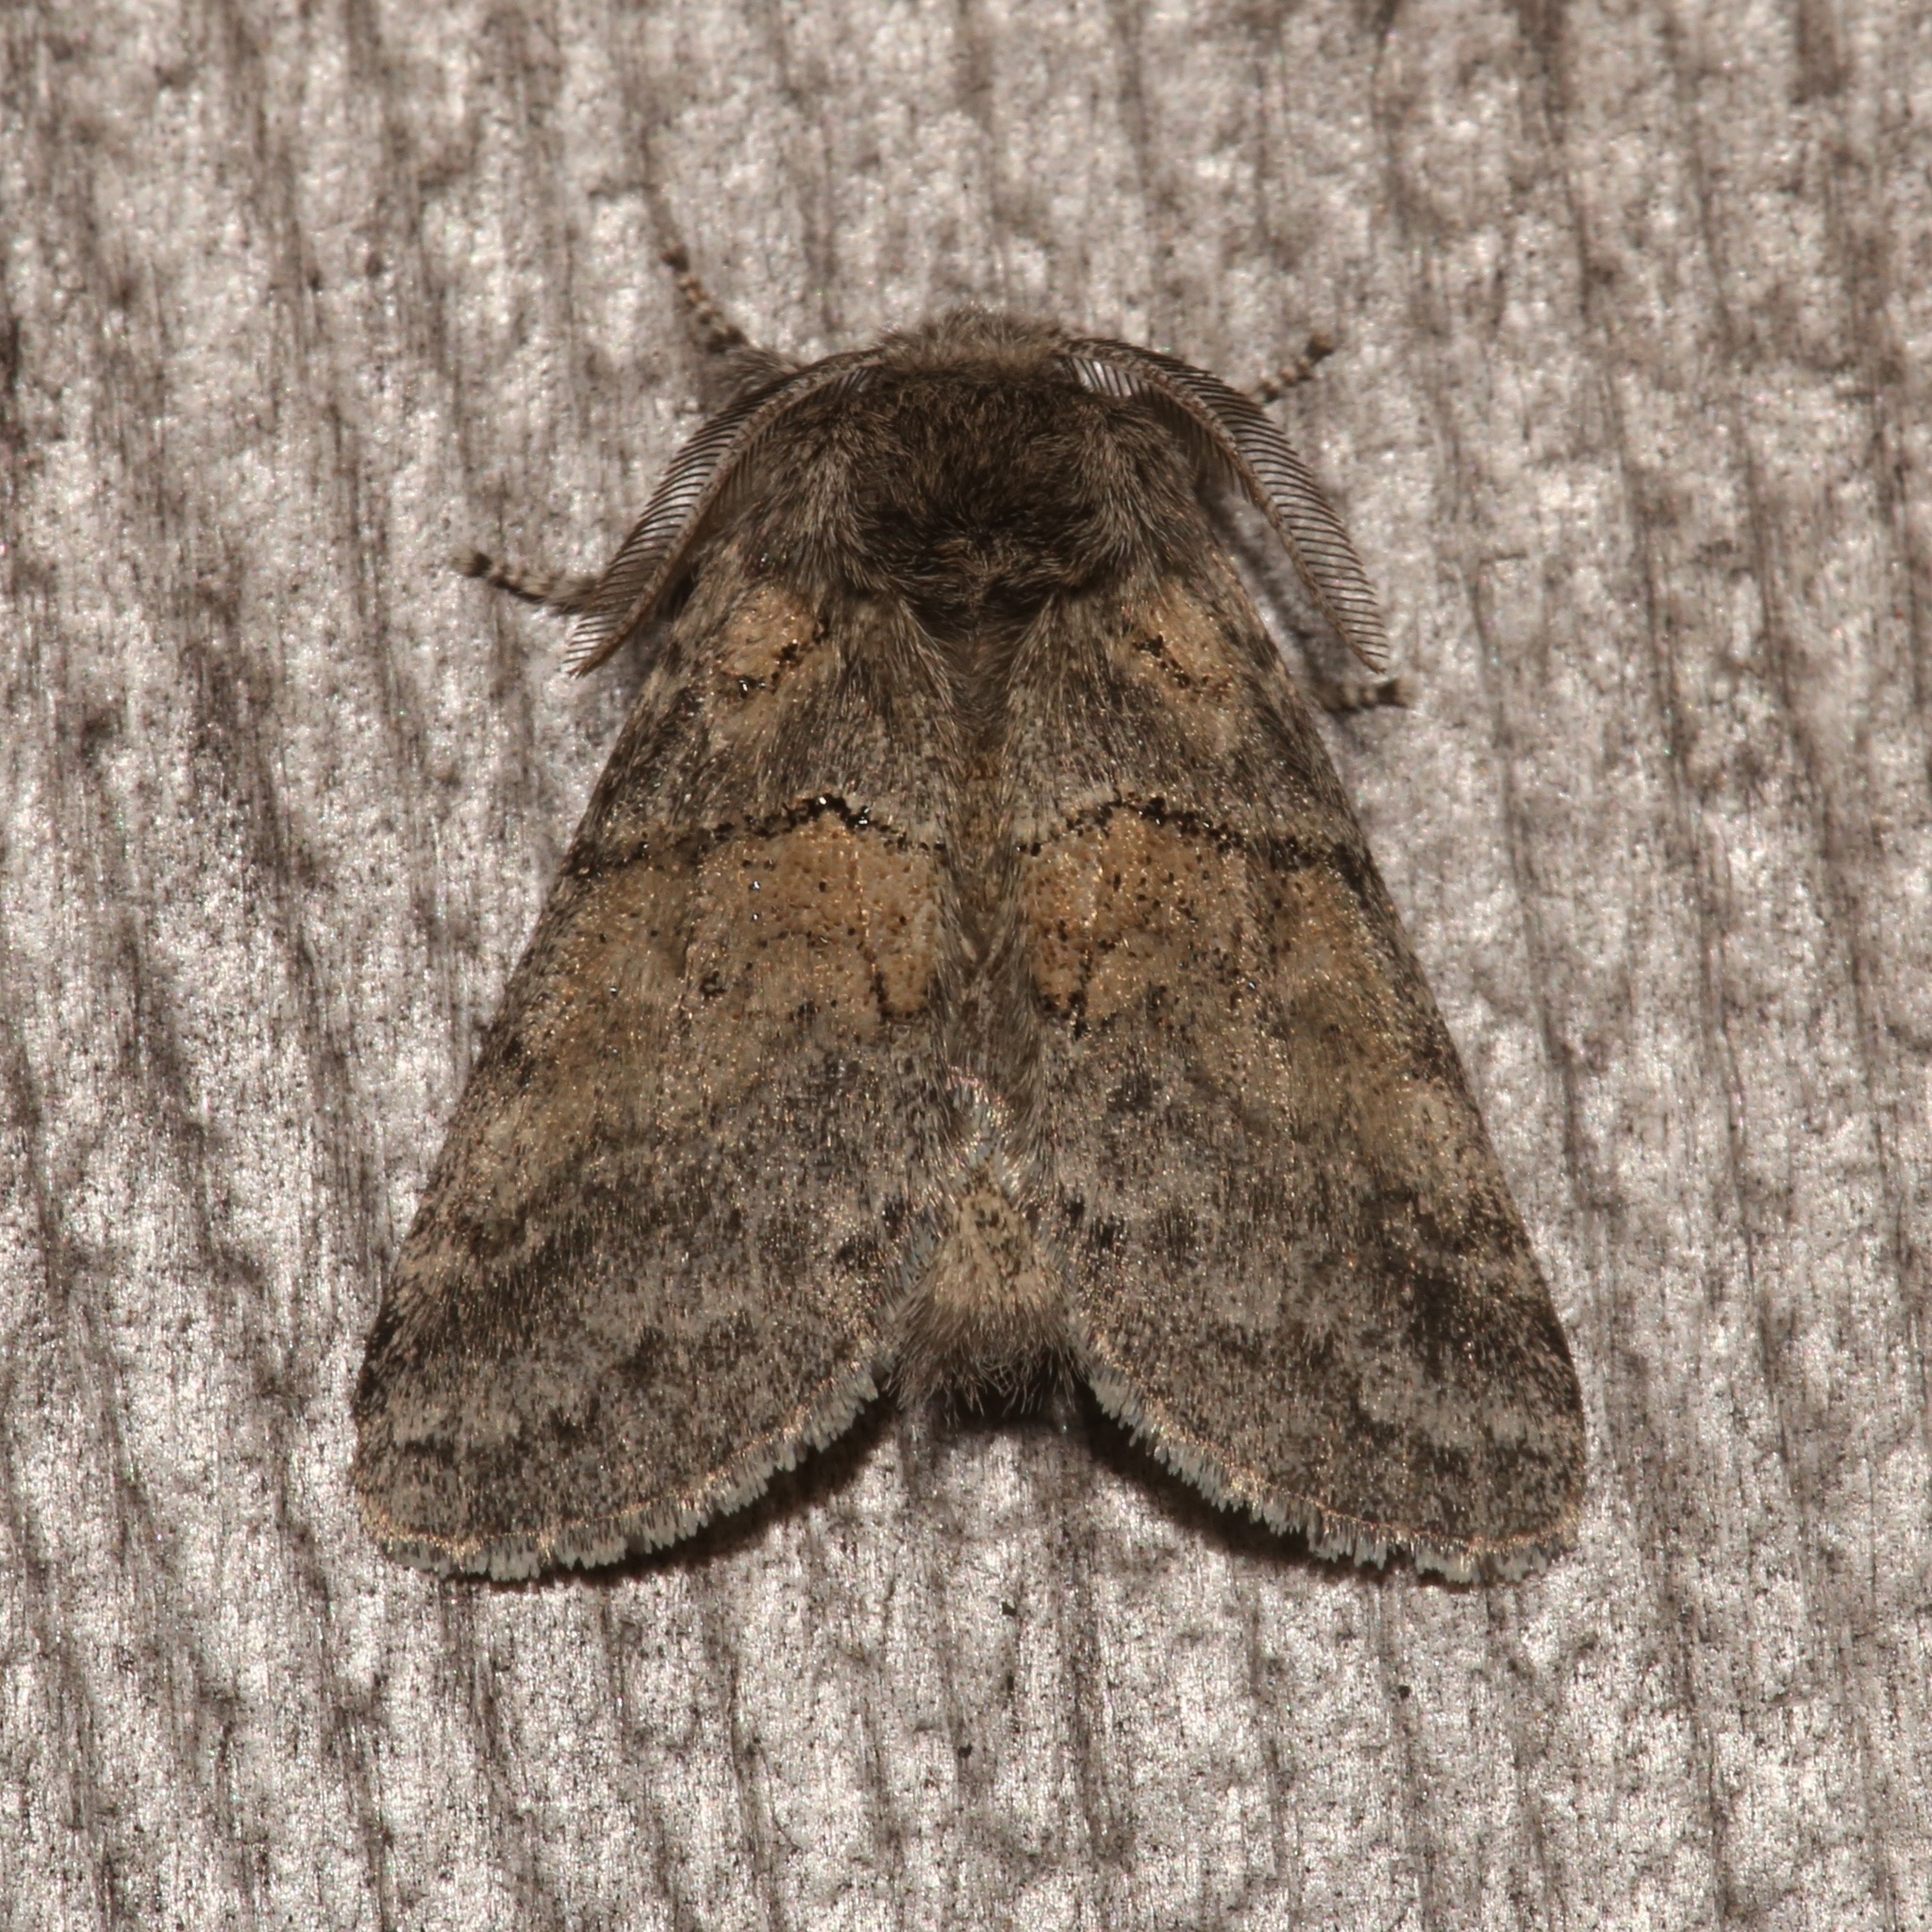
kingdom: Animalia
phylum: Arthropoda
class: Insecta
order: Lepidoptera
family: Notodontidae
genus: Gluphisia
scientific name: Gluphisia septentrionis
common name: Common gluphisia
